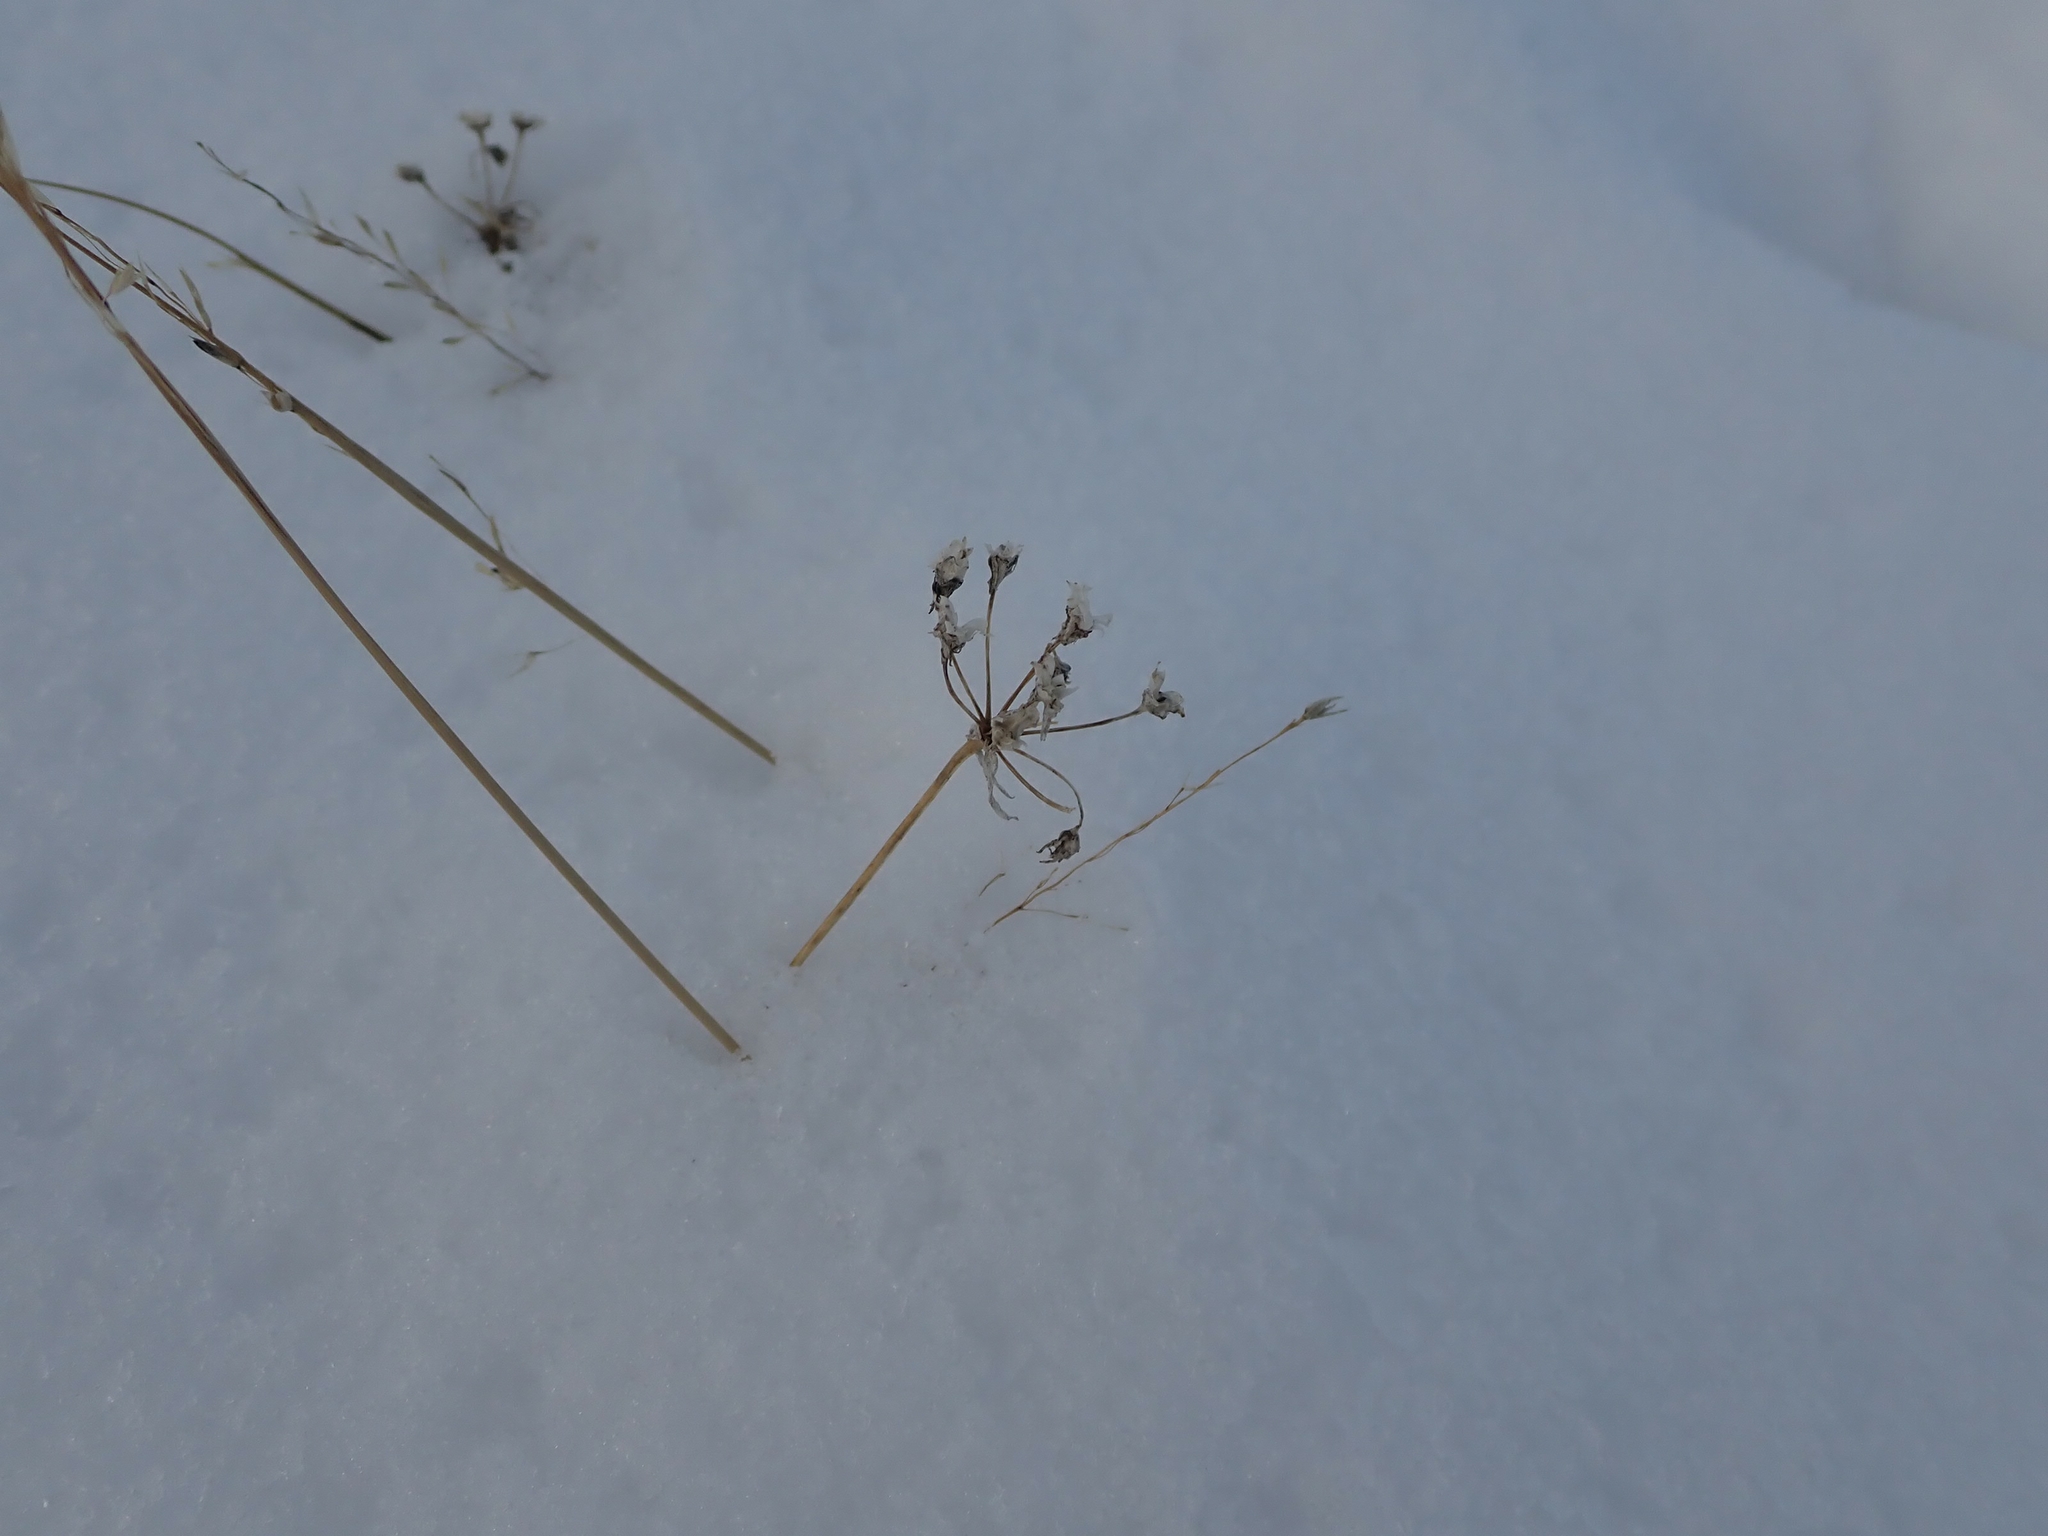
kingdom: Plantae
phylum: Tracheophyta
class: Liliopsida
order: Asparagales
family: Amaryllidaceae
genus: Allium
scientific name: Allium stellatum
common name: Autumn onion
